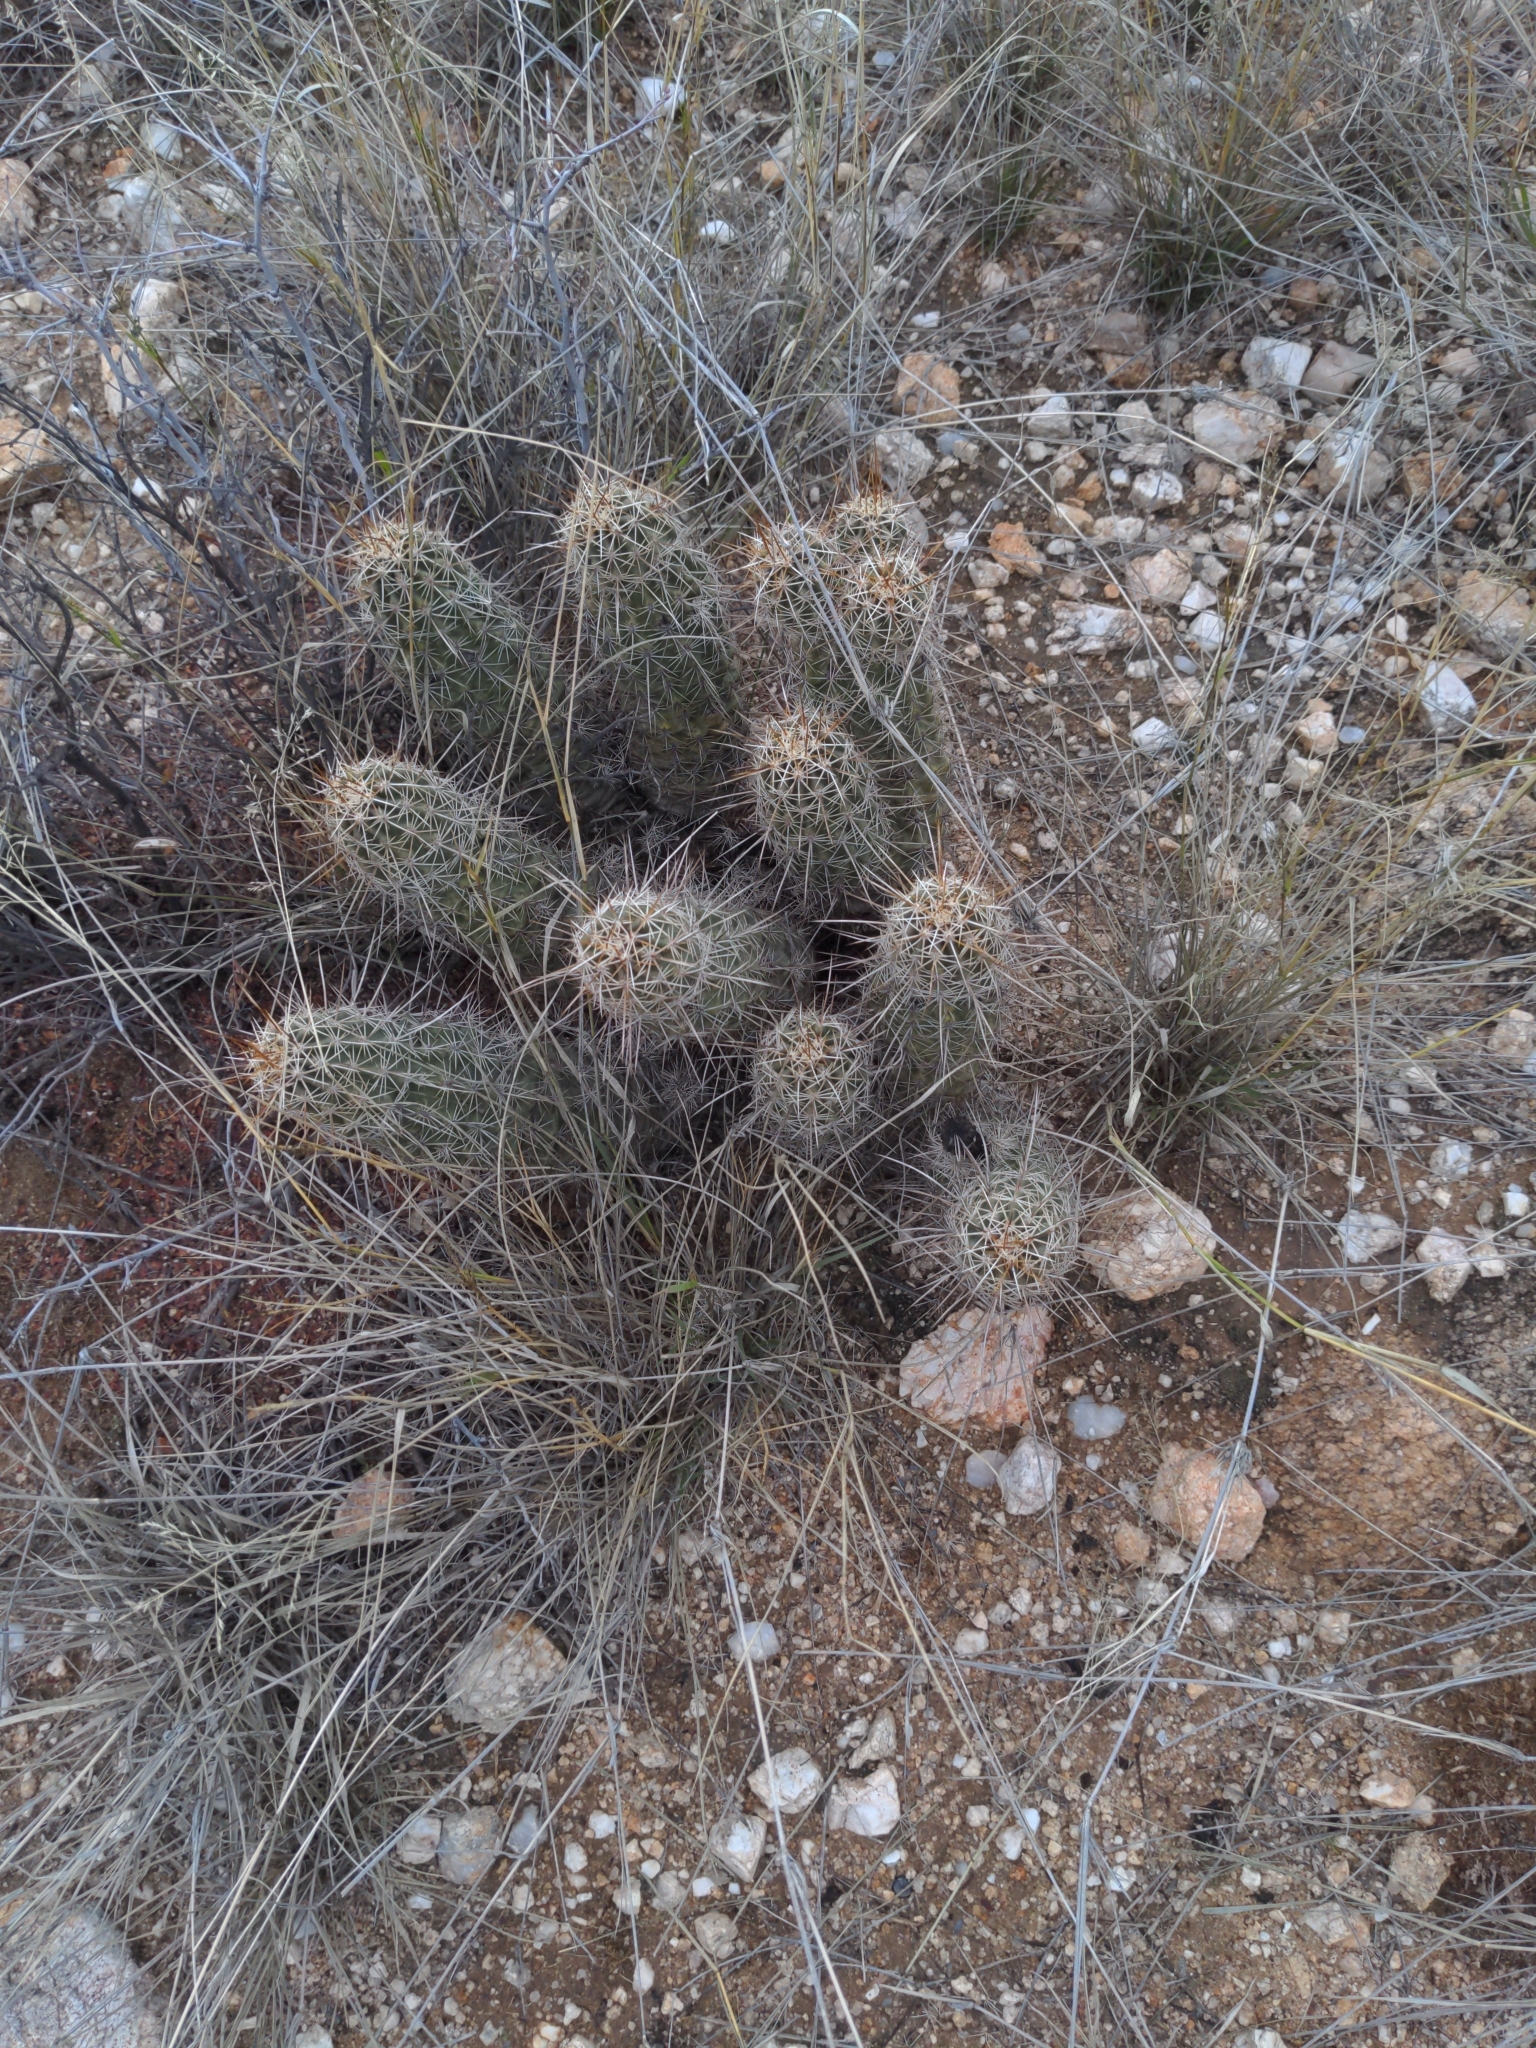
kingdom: Plantae
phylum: Tracheophyta
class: Magnoliopsida
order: Caryophyllales
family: Cactaceae
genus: Echinocereus
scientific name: Echinocereus fasciculatus
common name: Bundle hedgehog
